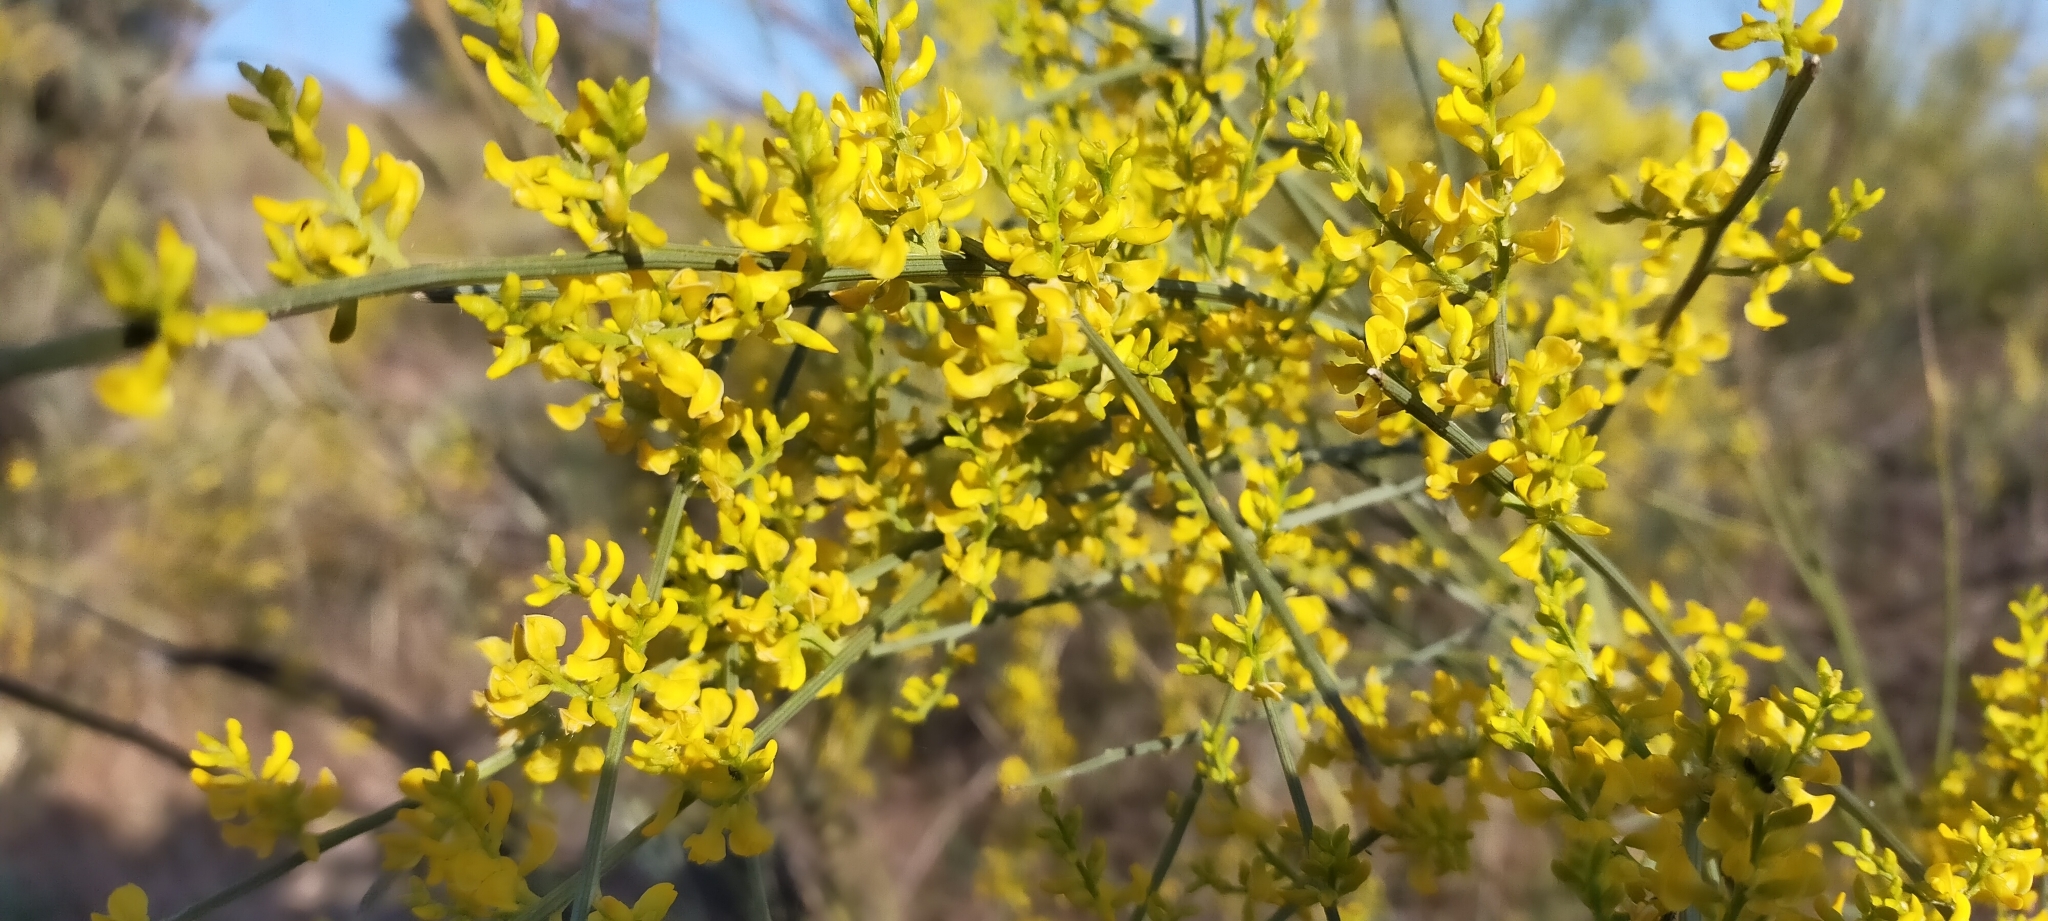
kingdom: Plantae
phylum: Tracheophyta
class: Magnoliopsida
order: Fabales
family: Fabaceae
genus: Retama
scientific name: Retama sphaerocarpa
